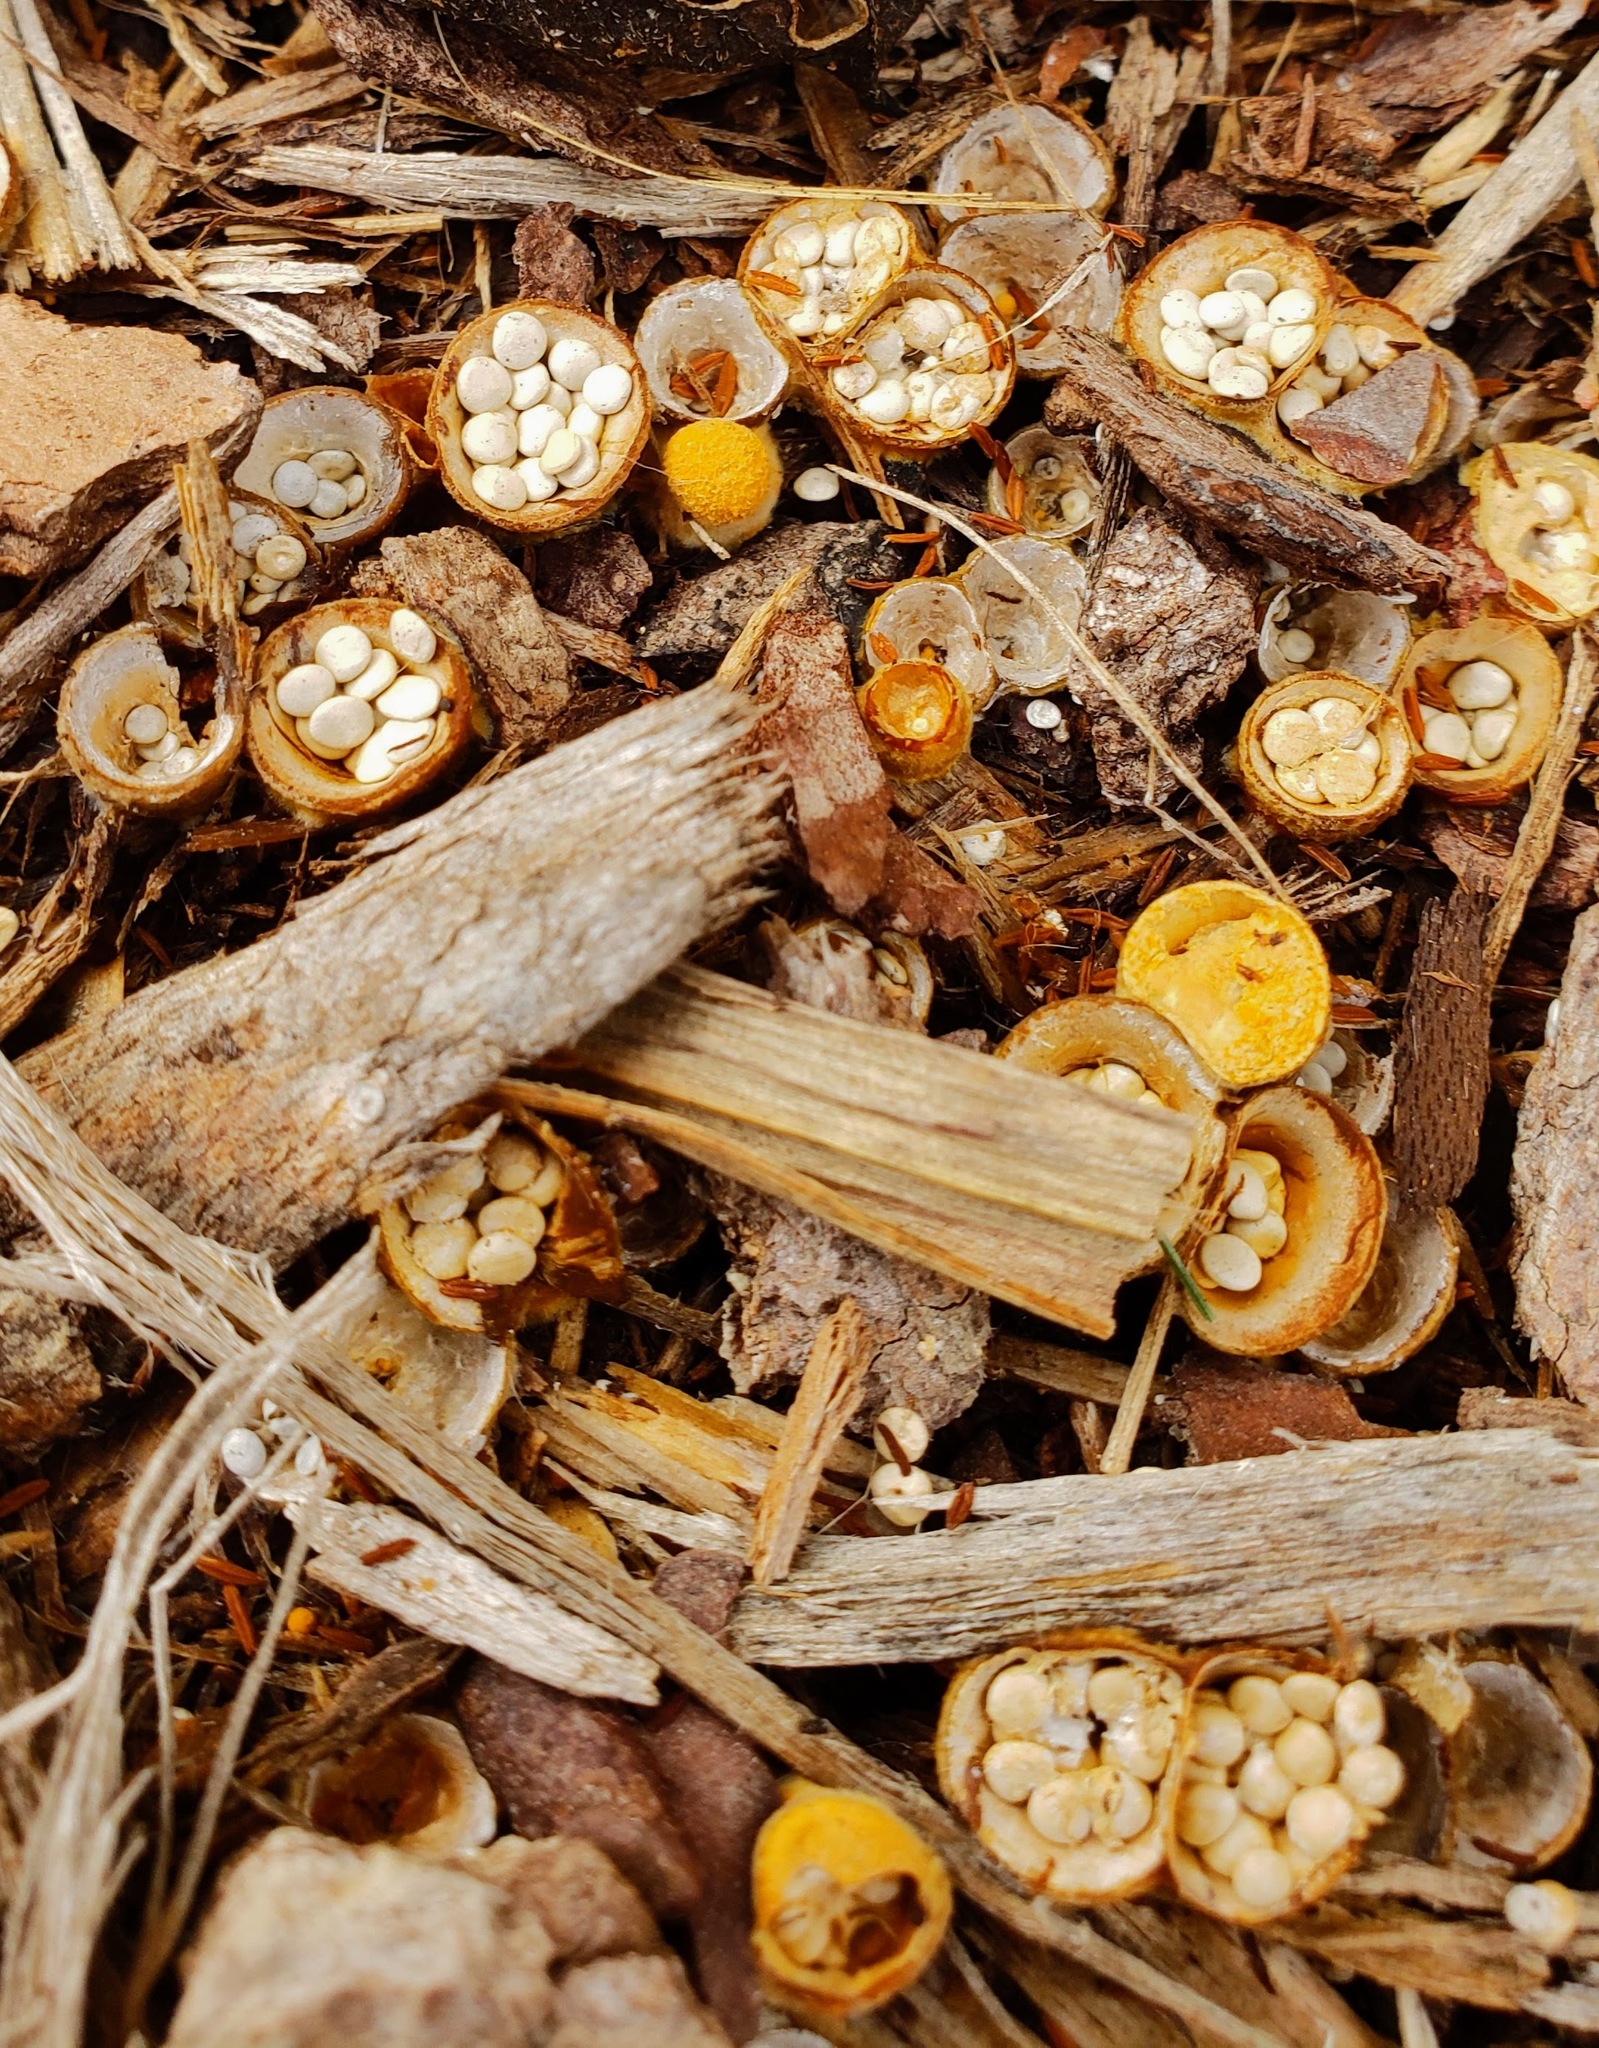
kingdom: Fungi
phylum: Basidiomycota
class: Agaricomycetes
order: Agaricales
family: Nidulariaceae
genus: Crucibulum
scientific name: Crucibulum laeve
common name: Common bird's nest
